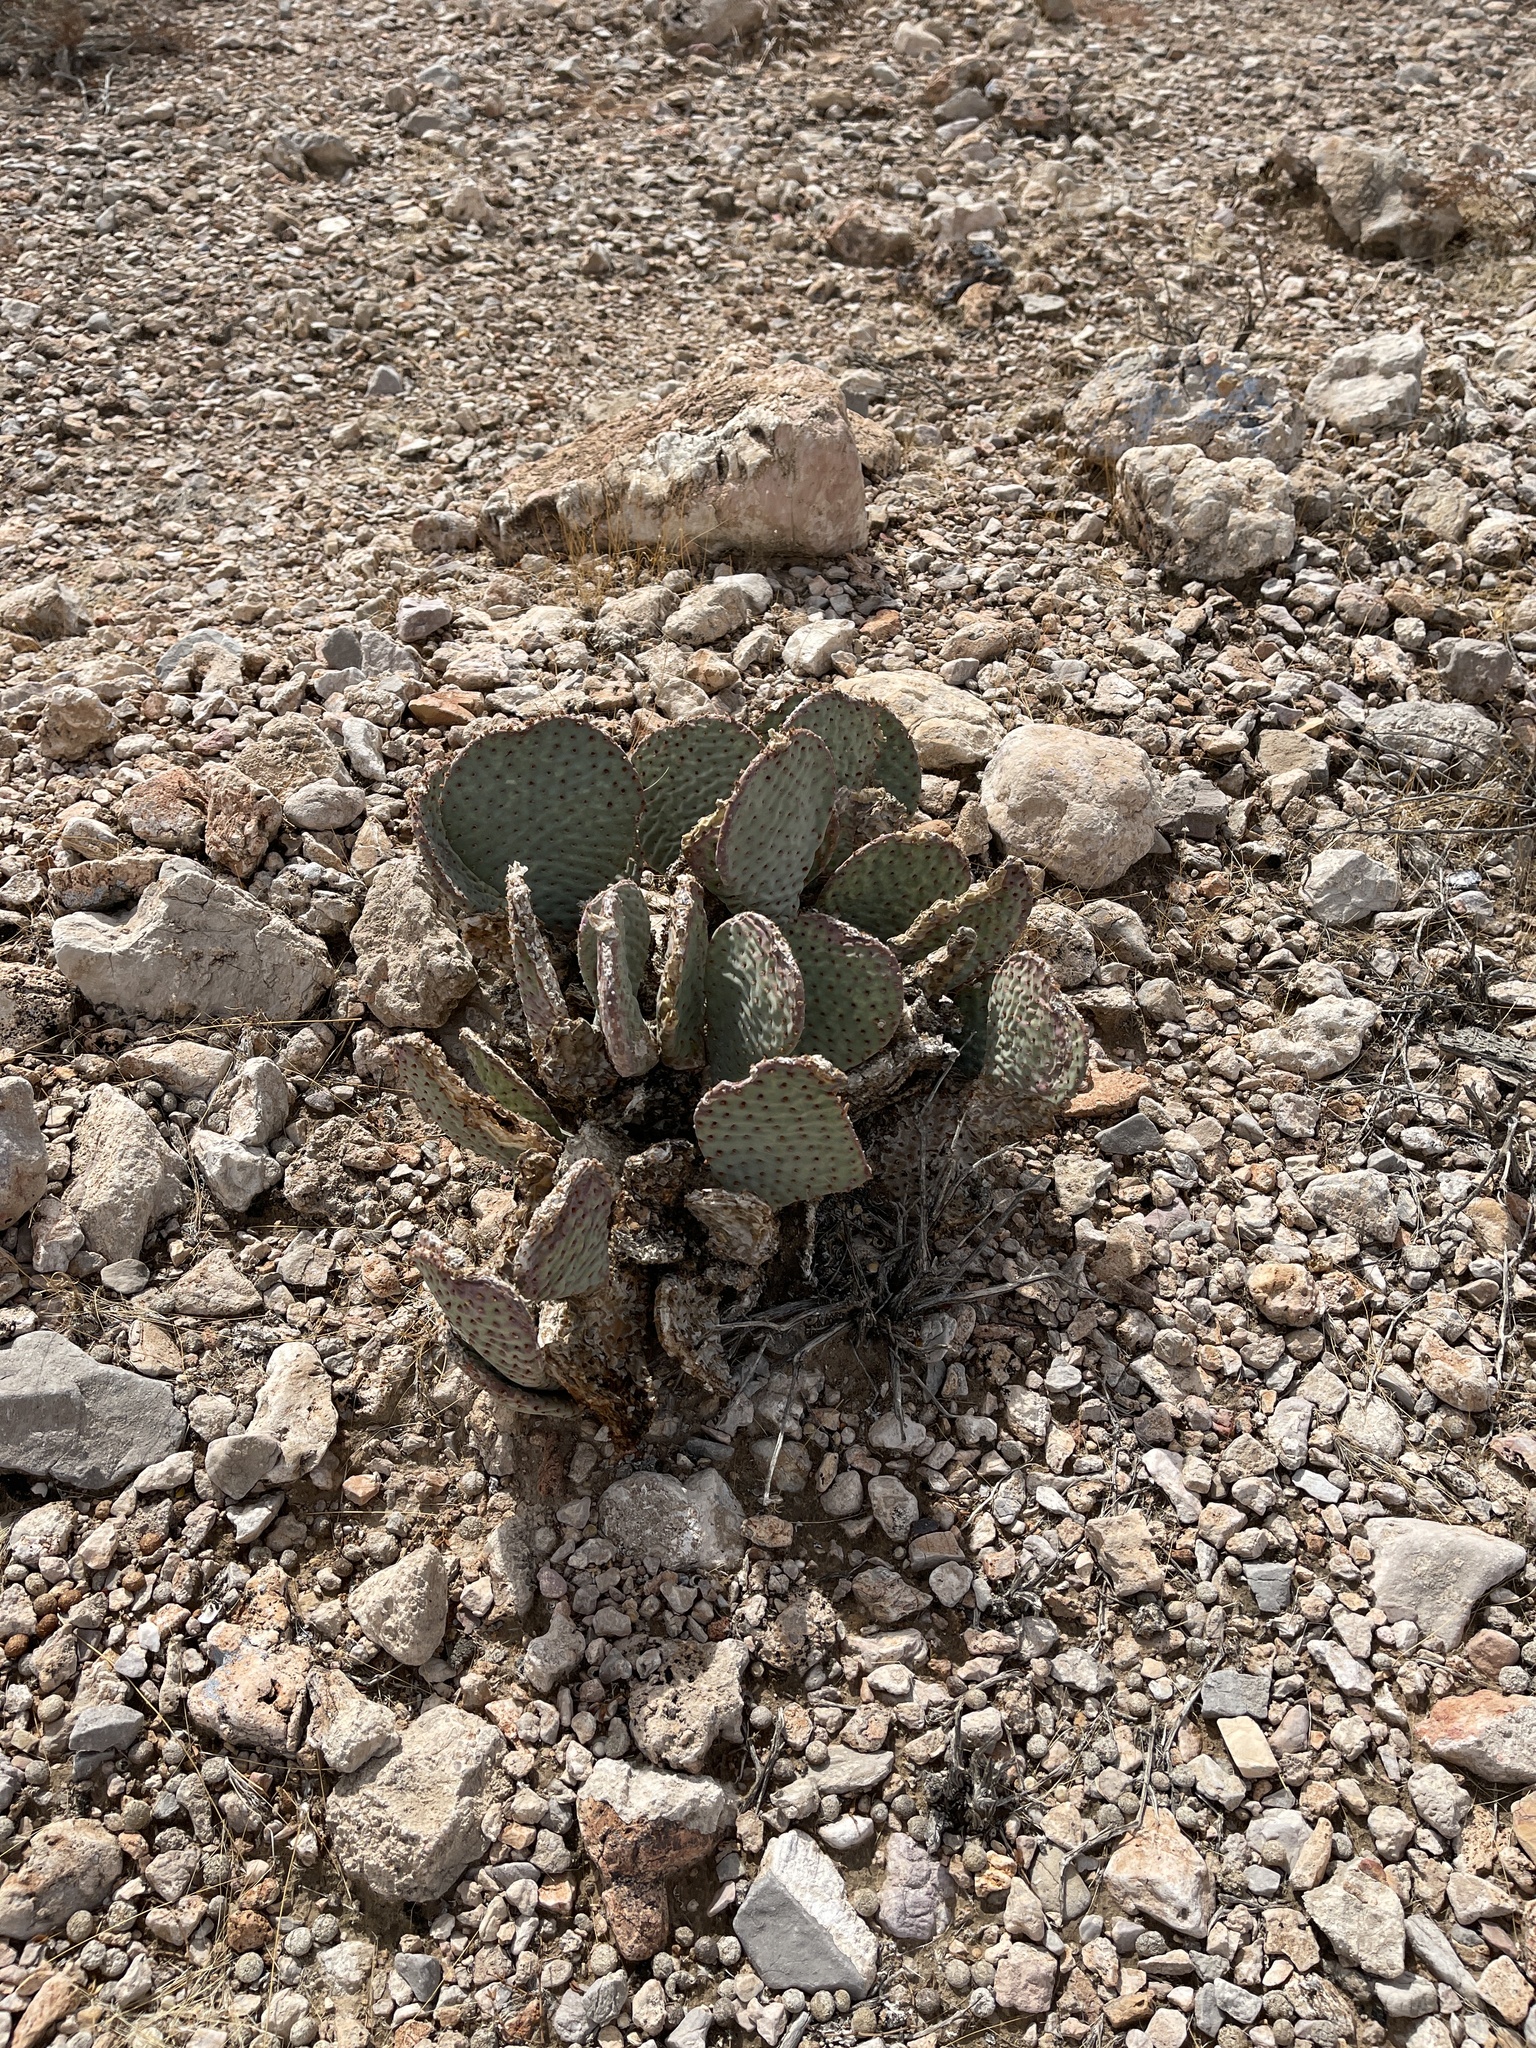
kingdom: Plantae
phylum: Tracheophyta
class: Magnoliopsida
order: Caryophyllales
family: Cactaceae
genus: Opuntia
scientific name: Opuntia basilaris
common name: Beavertail prickly-pear
